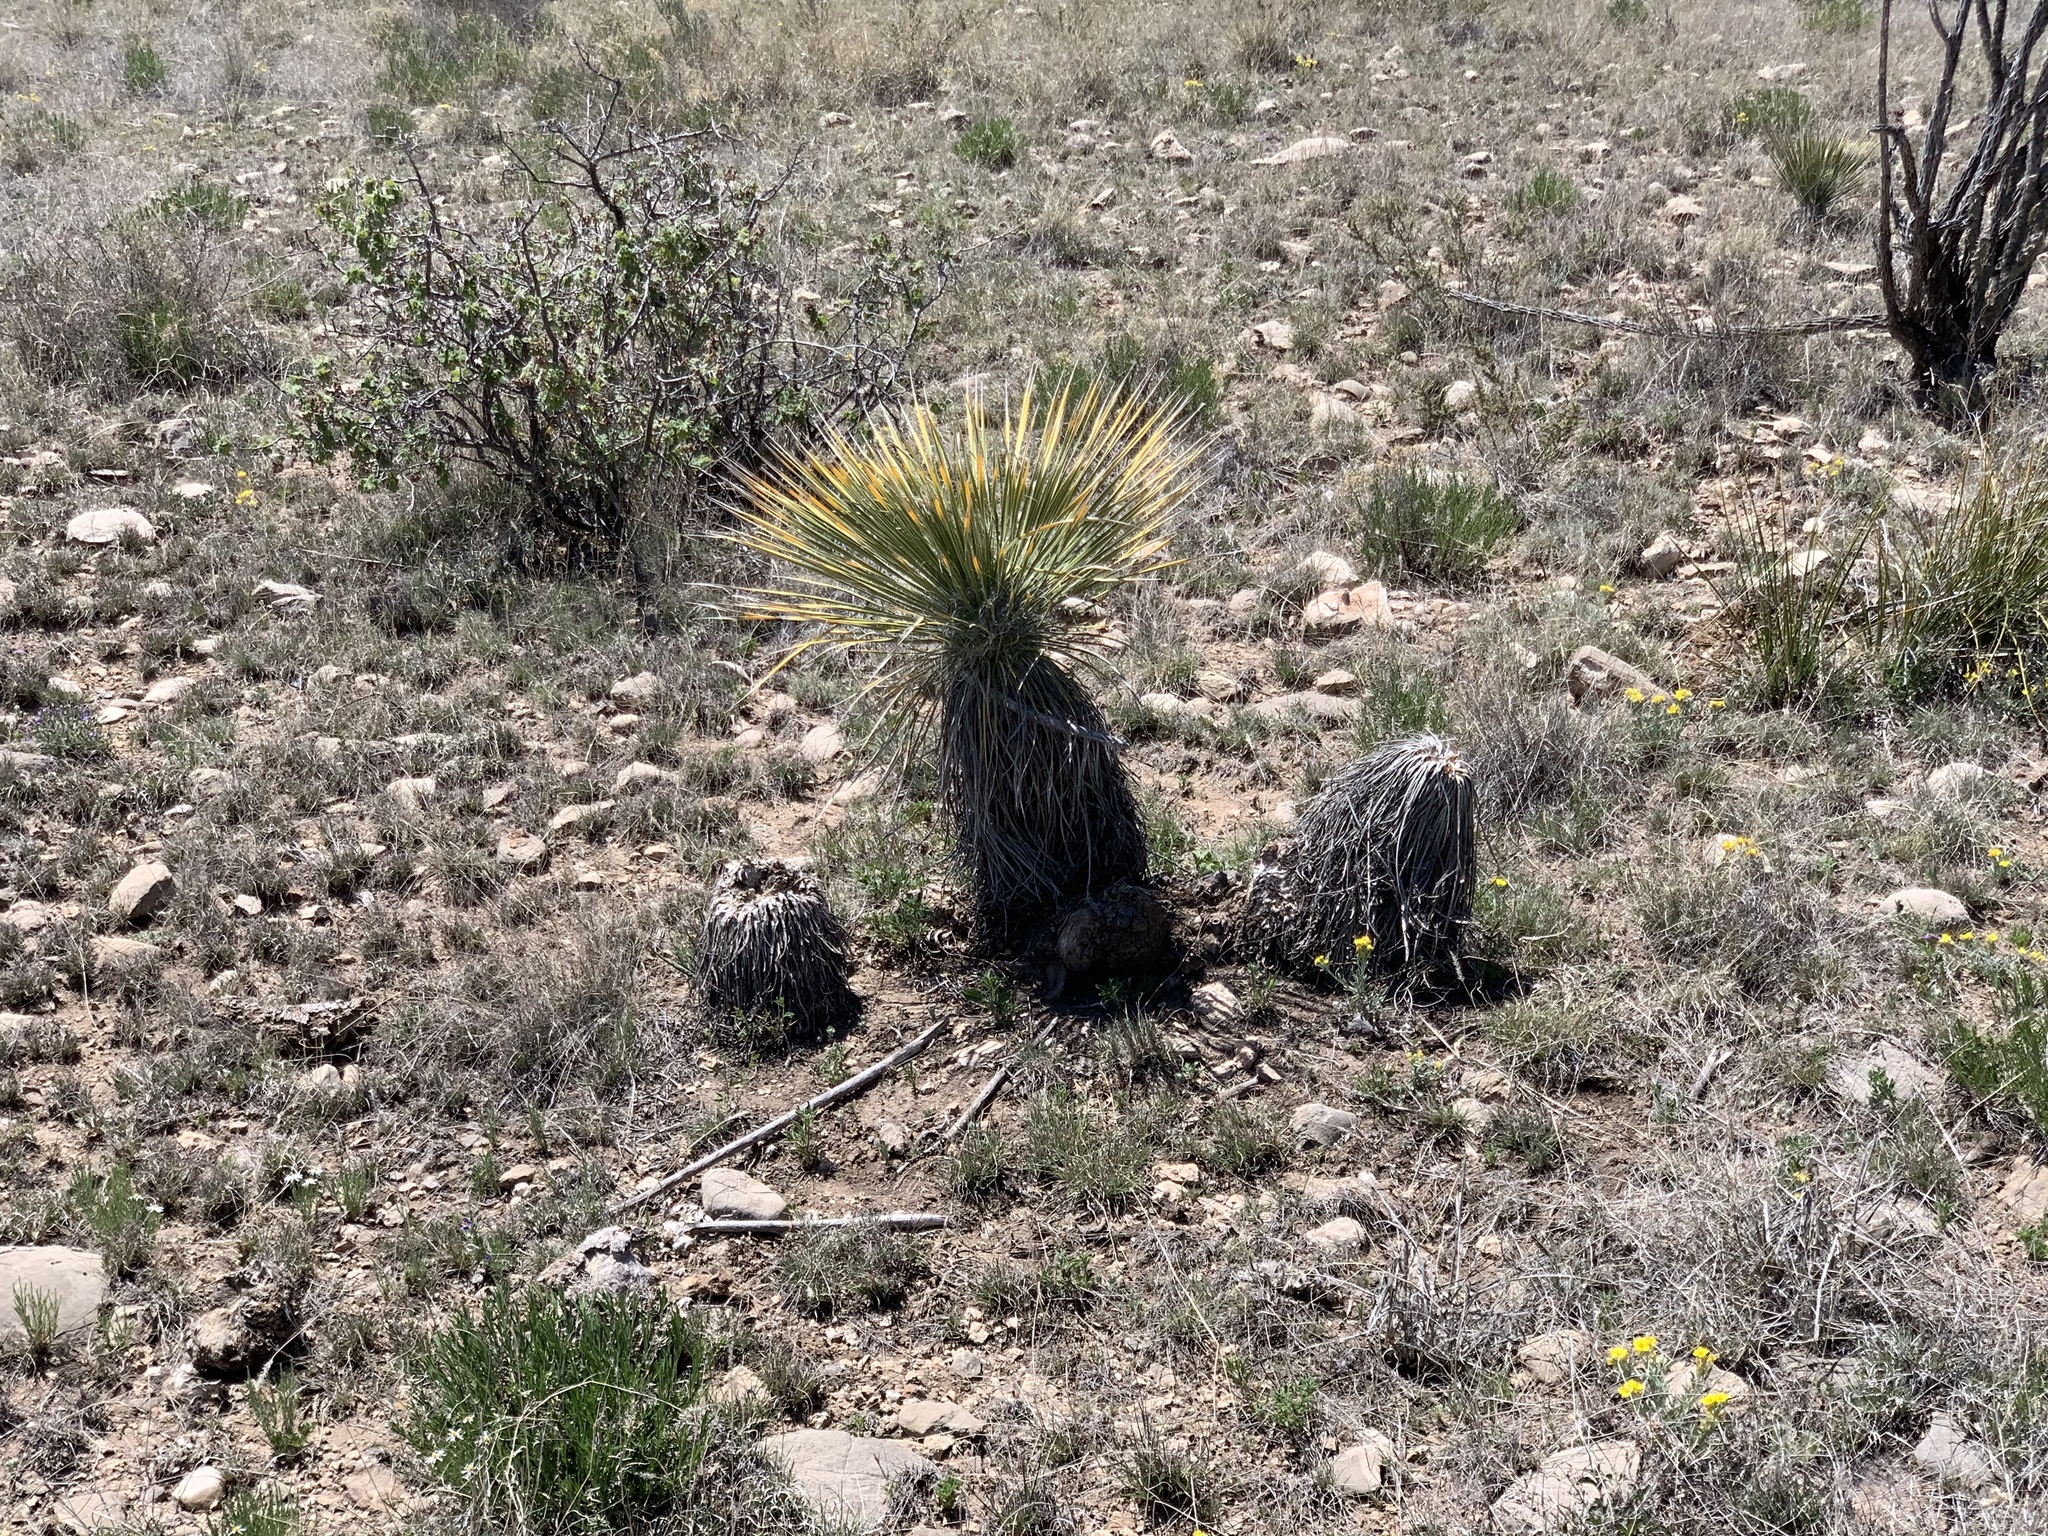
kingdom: Plantae
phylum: Tracheophyta
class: Liliopsida
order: Asparagales
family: Asparagaceae
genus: Yucca
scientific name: Yucca elata
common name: Palmella
